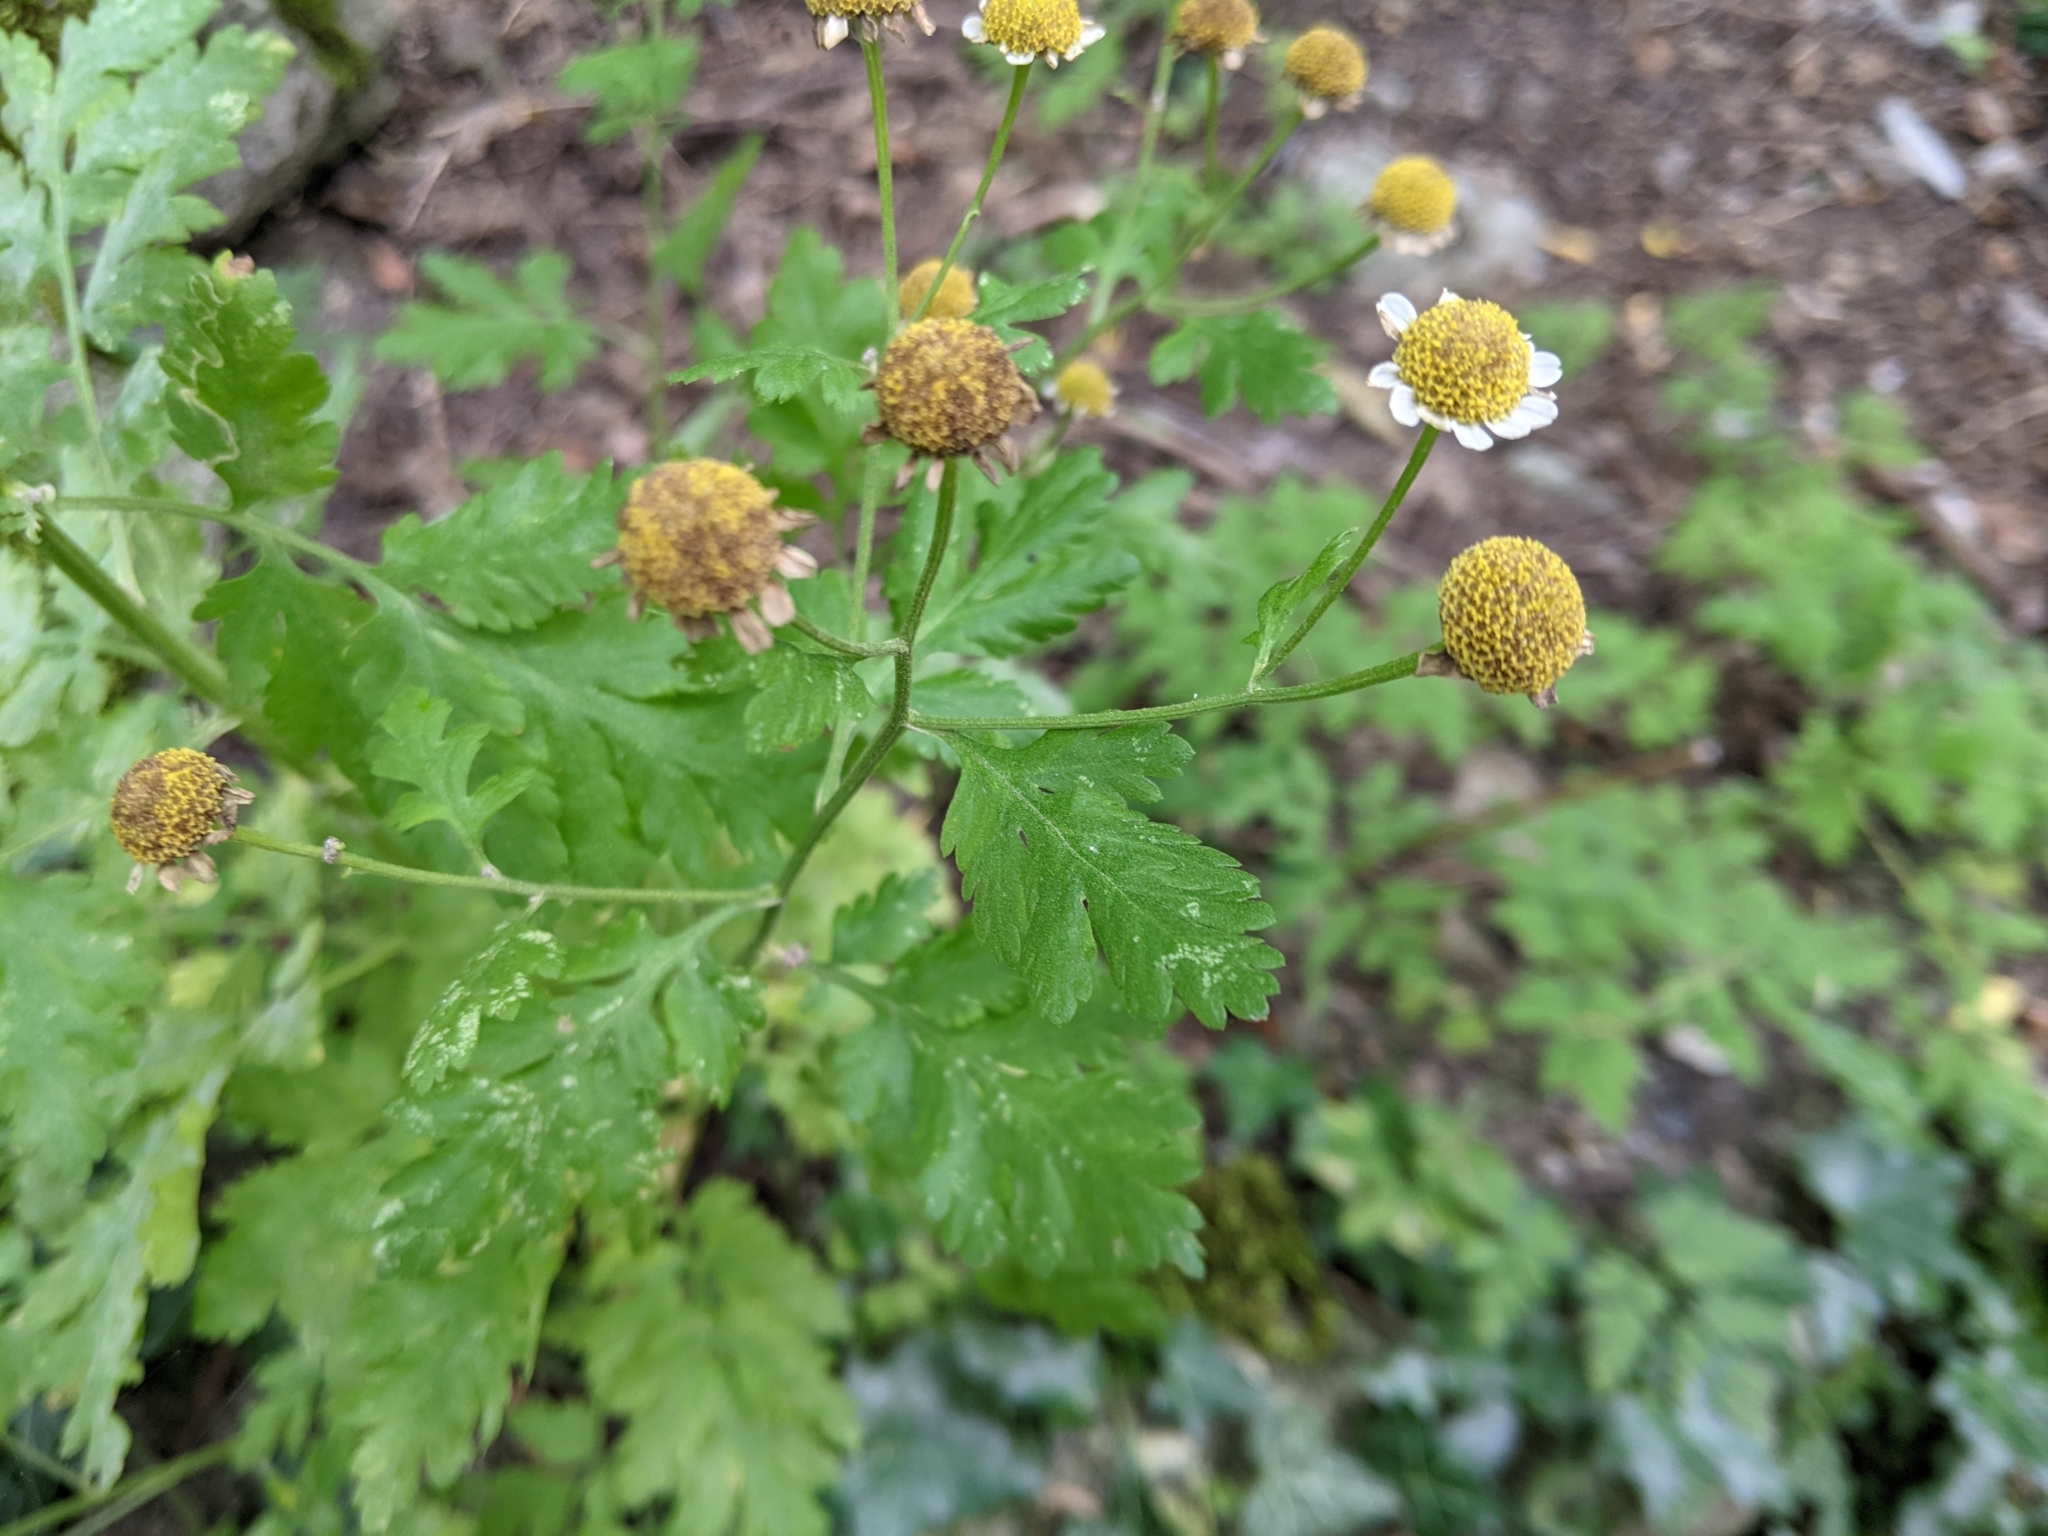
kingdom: Plantae
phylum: Tracheophyta
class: Magnoliopsida
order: Asterales
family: Asteraceae
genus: Tanacetum
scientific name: Tanacetum parthenium
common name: Feverfew
